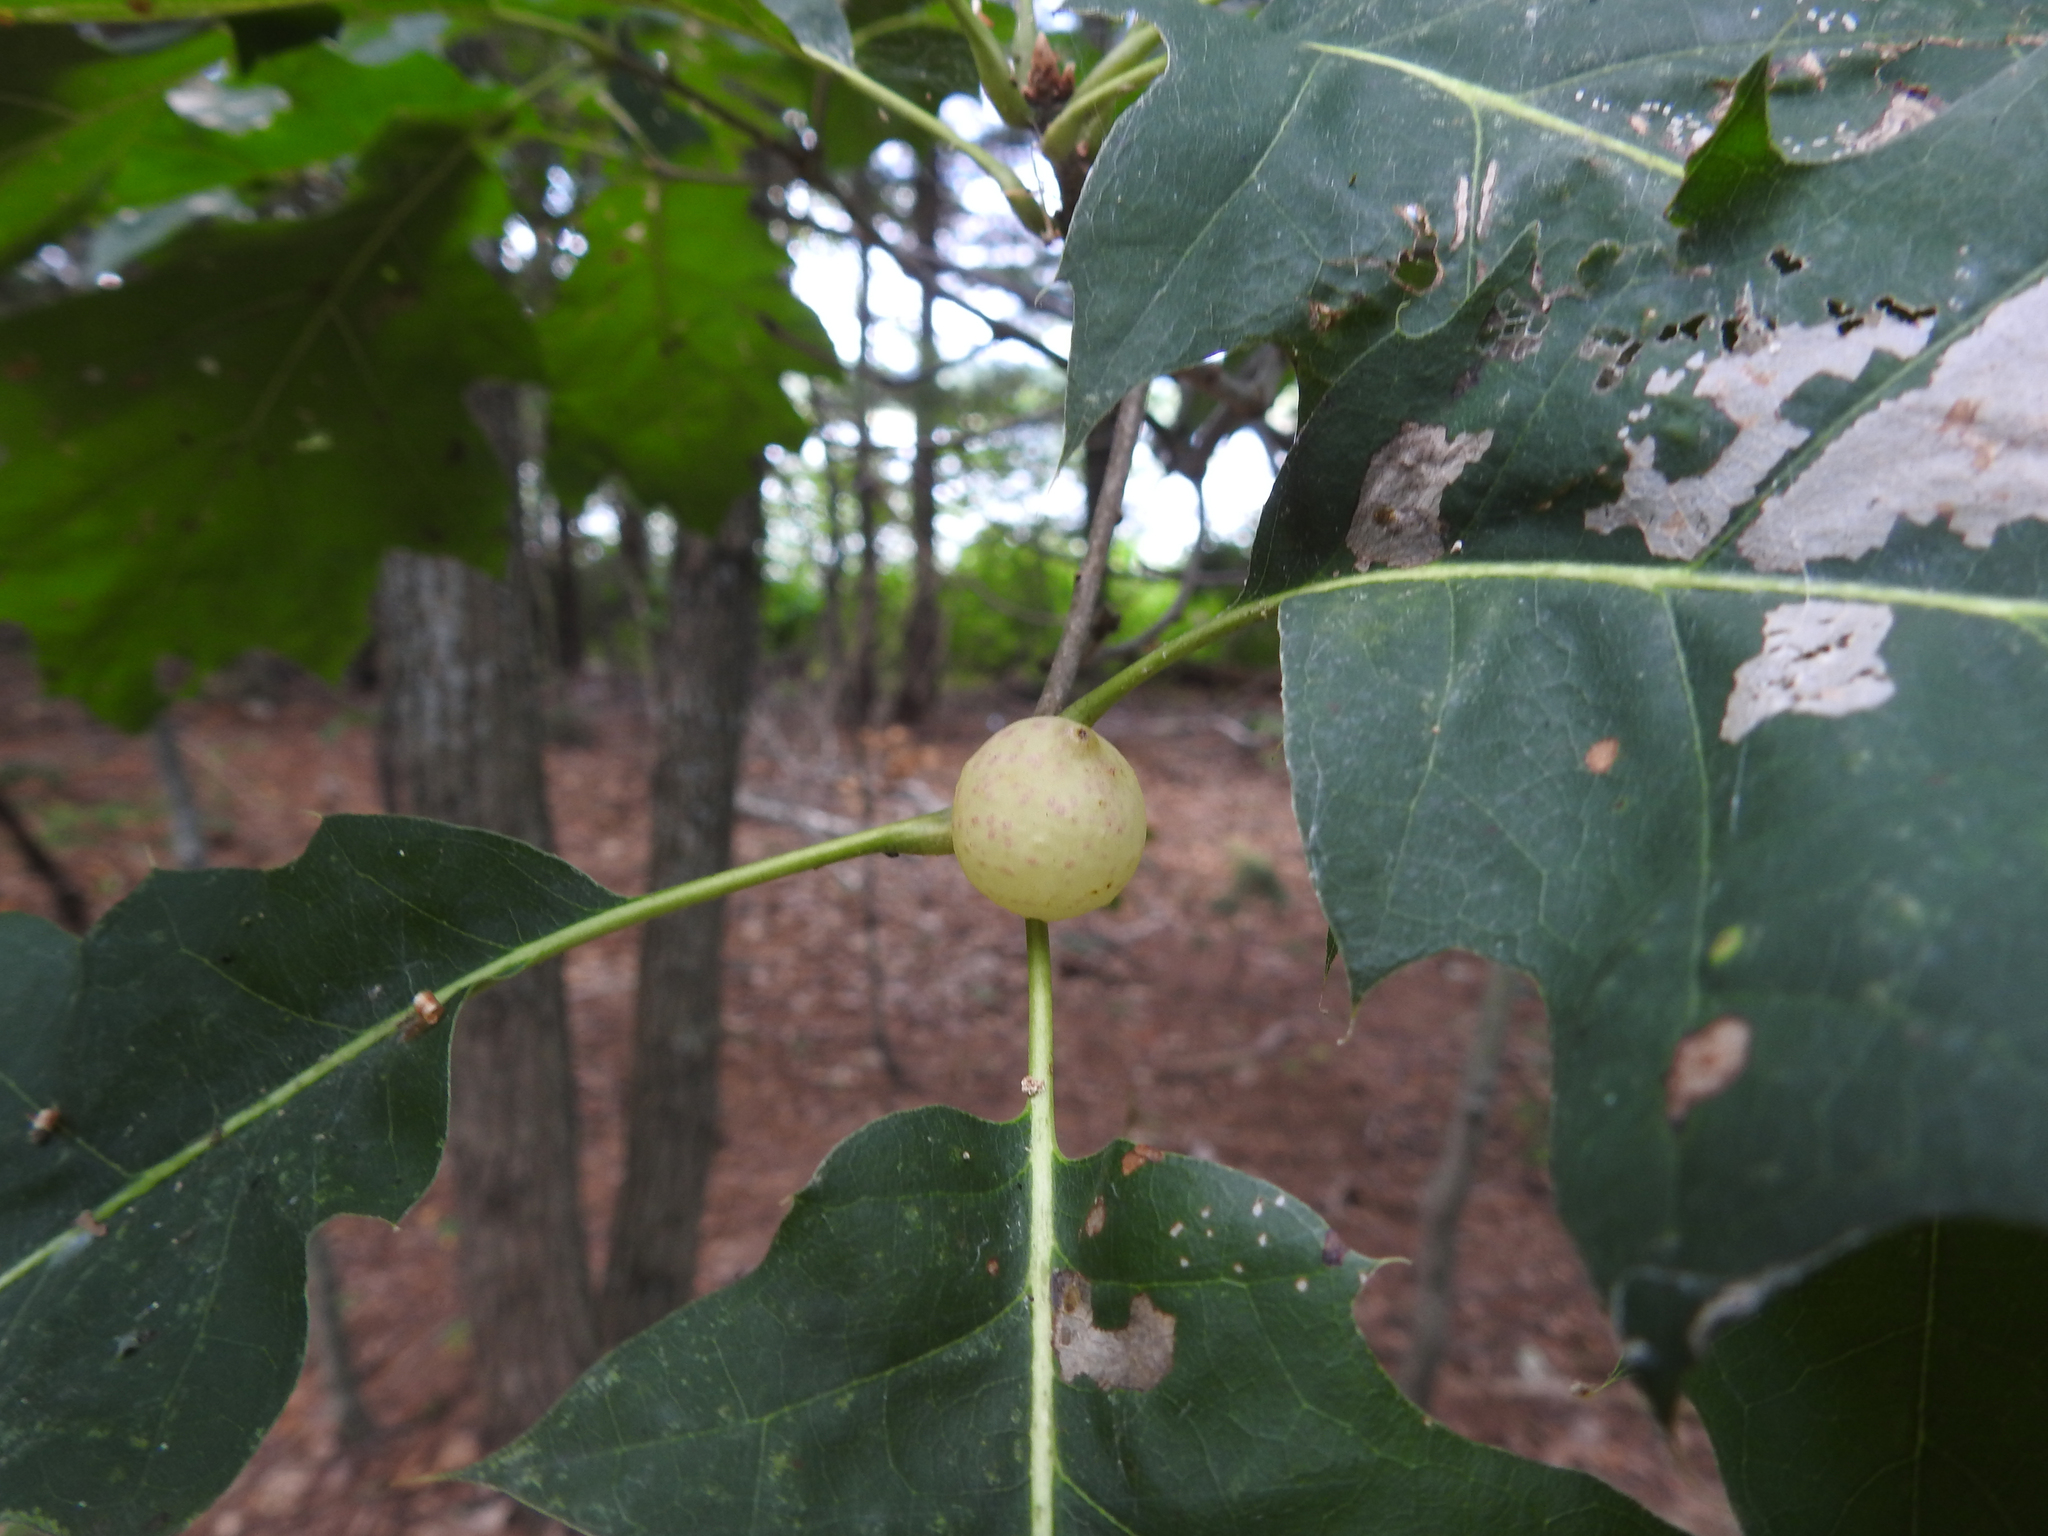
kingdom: Animalia
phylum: Arthropoda
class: Insecta
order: Hymenoptera
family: Cynipidae
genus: Amphibolips
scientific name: Amphibolips
